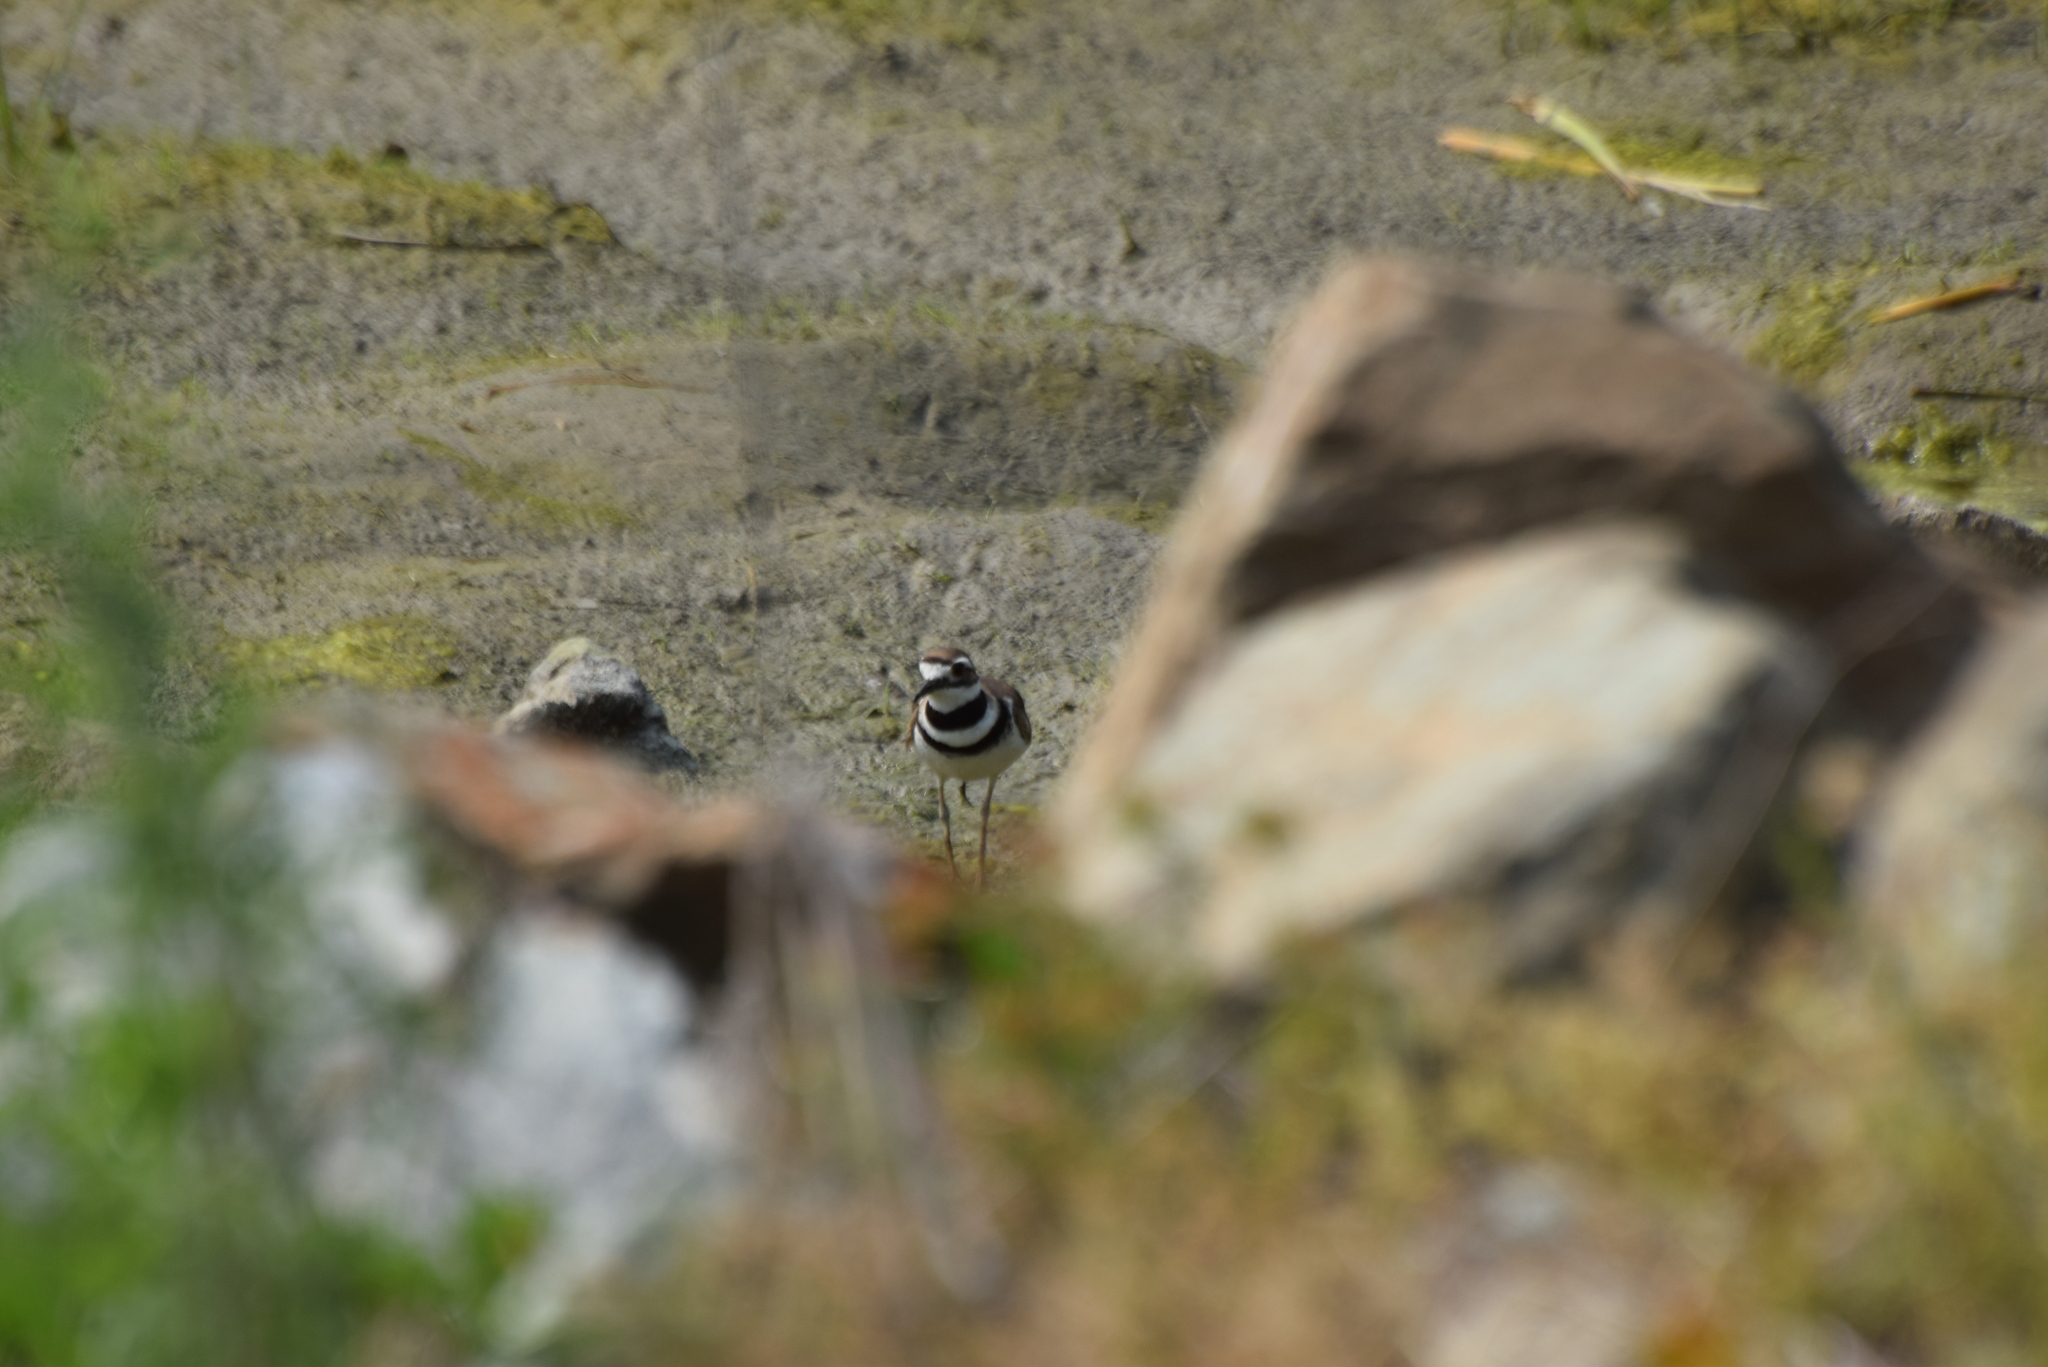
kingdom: Animalia
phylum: Chordata
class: Aves
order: Charadriiformes
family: Charadriidae
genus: Charadrius
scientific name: Charadrius vociferus
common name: Killdeer
